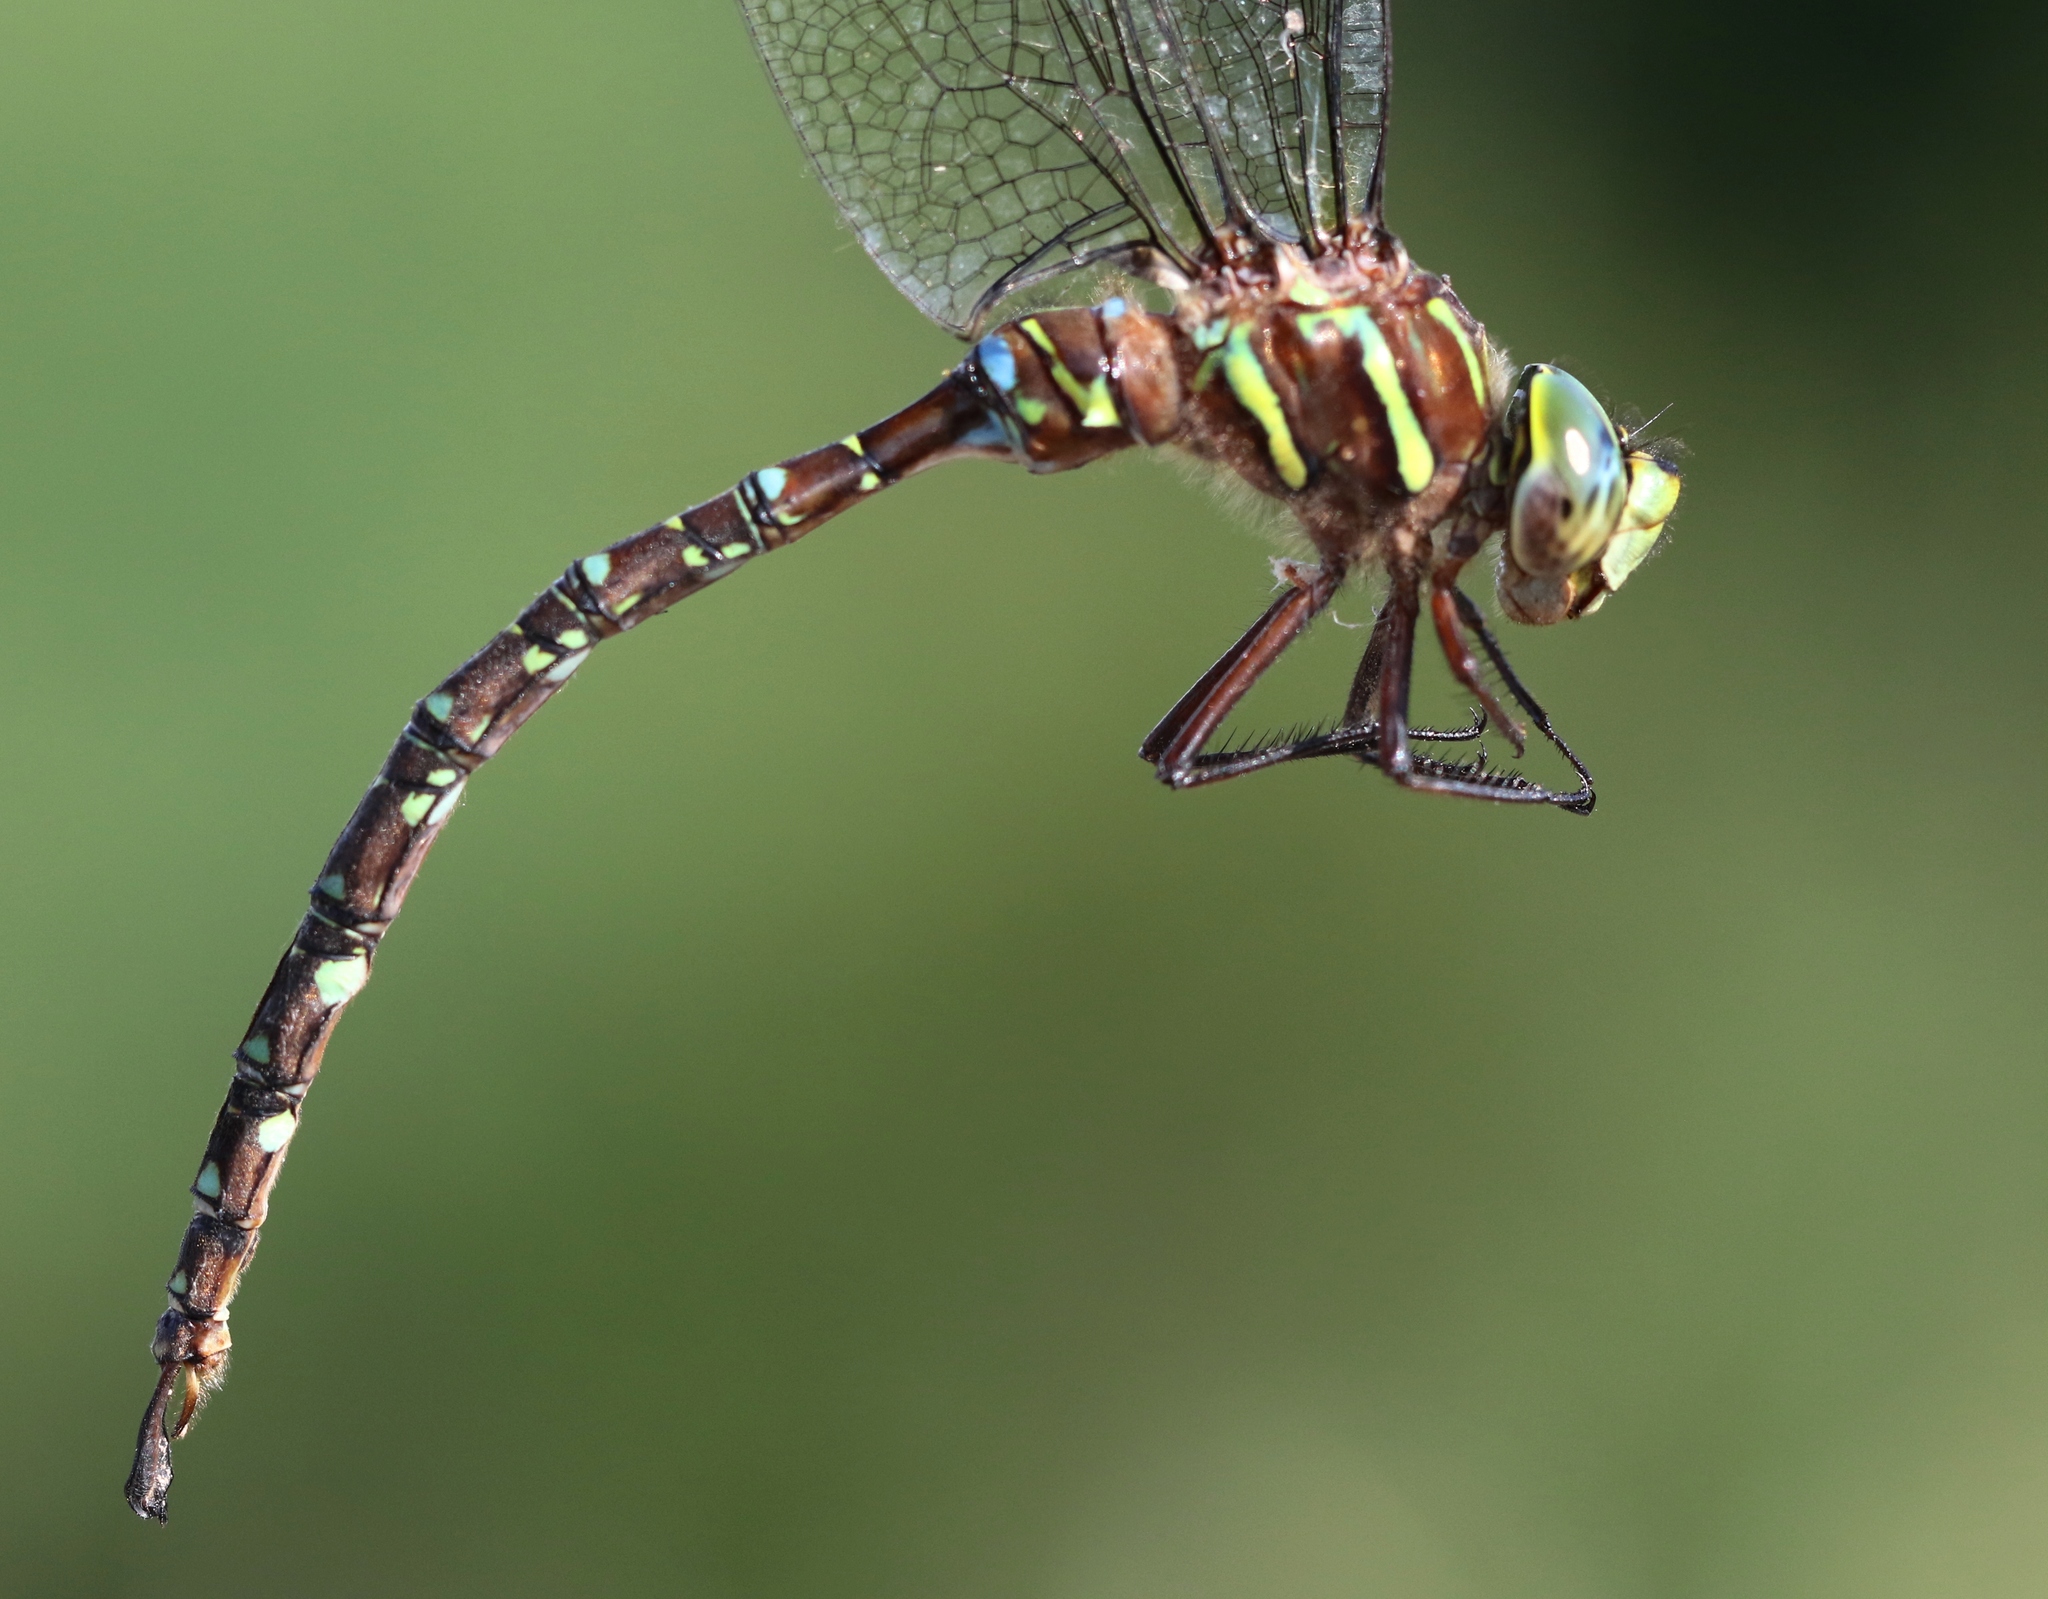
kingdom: Animalia
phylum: Arthropoda
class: Insecta
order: Odonata
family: Aeshnidae
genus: Aeshna
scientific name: Aeshna umbrosa
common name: Shadow darner
